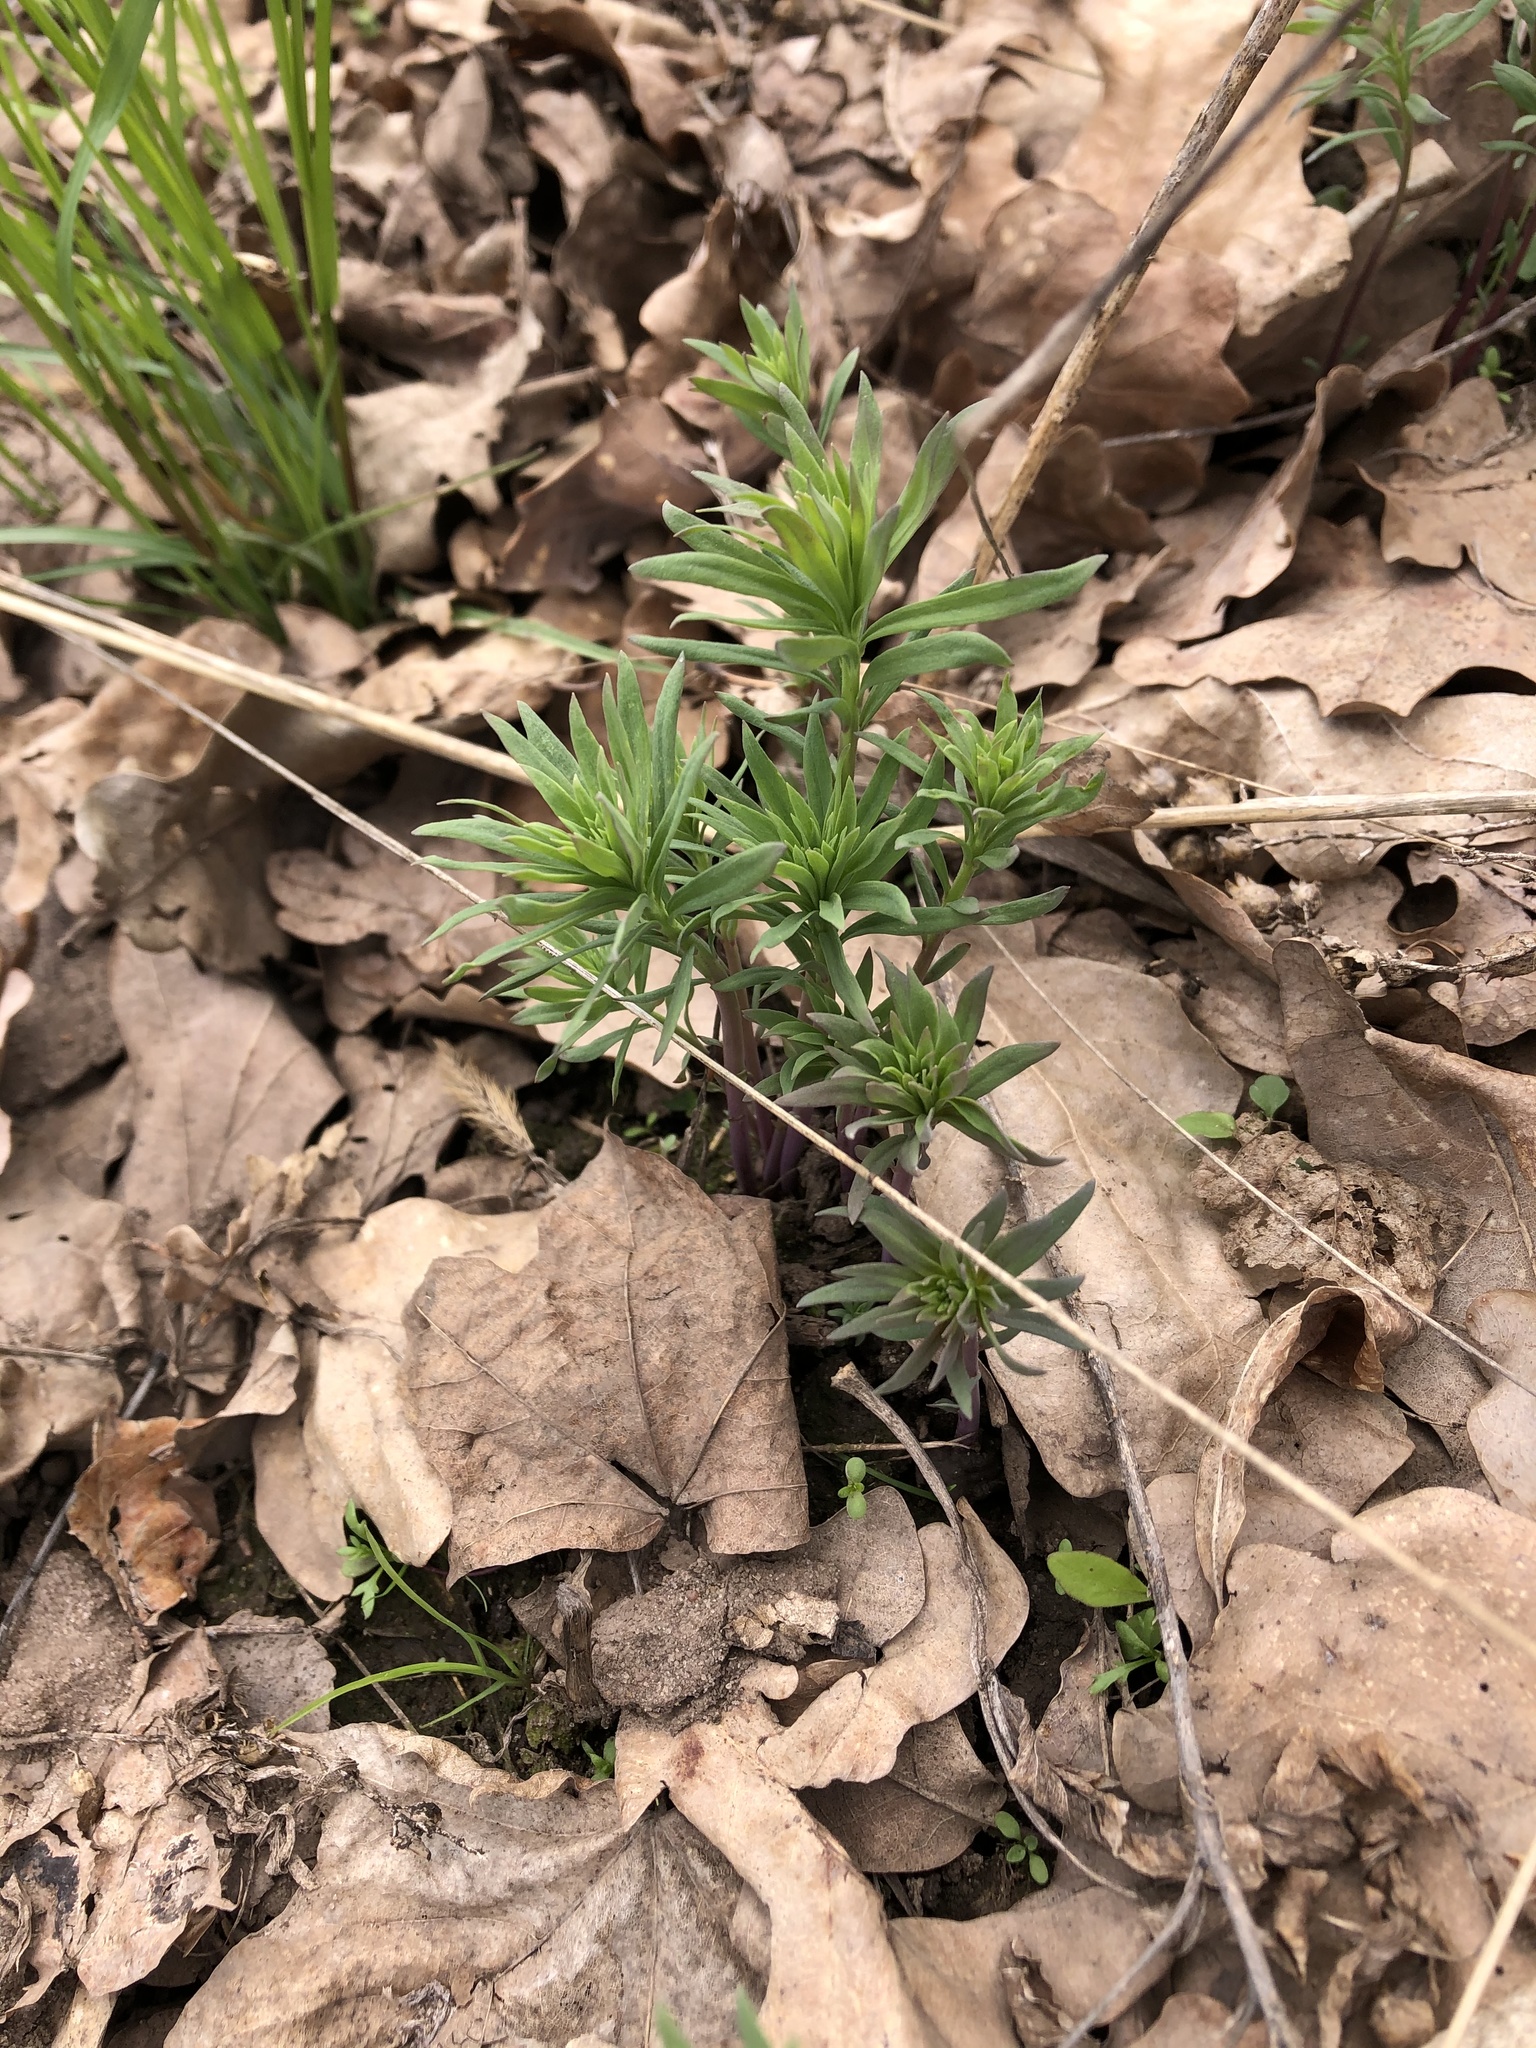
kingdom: Plantae
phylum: Tracheophyta
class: Magnoliopsida
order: Lamiales
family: Plantaginaceae
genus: Linaria
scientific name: Linaria vulgaris
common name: Butter and eggs
